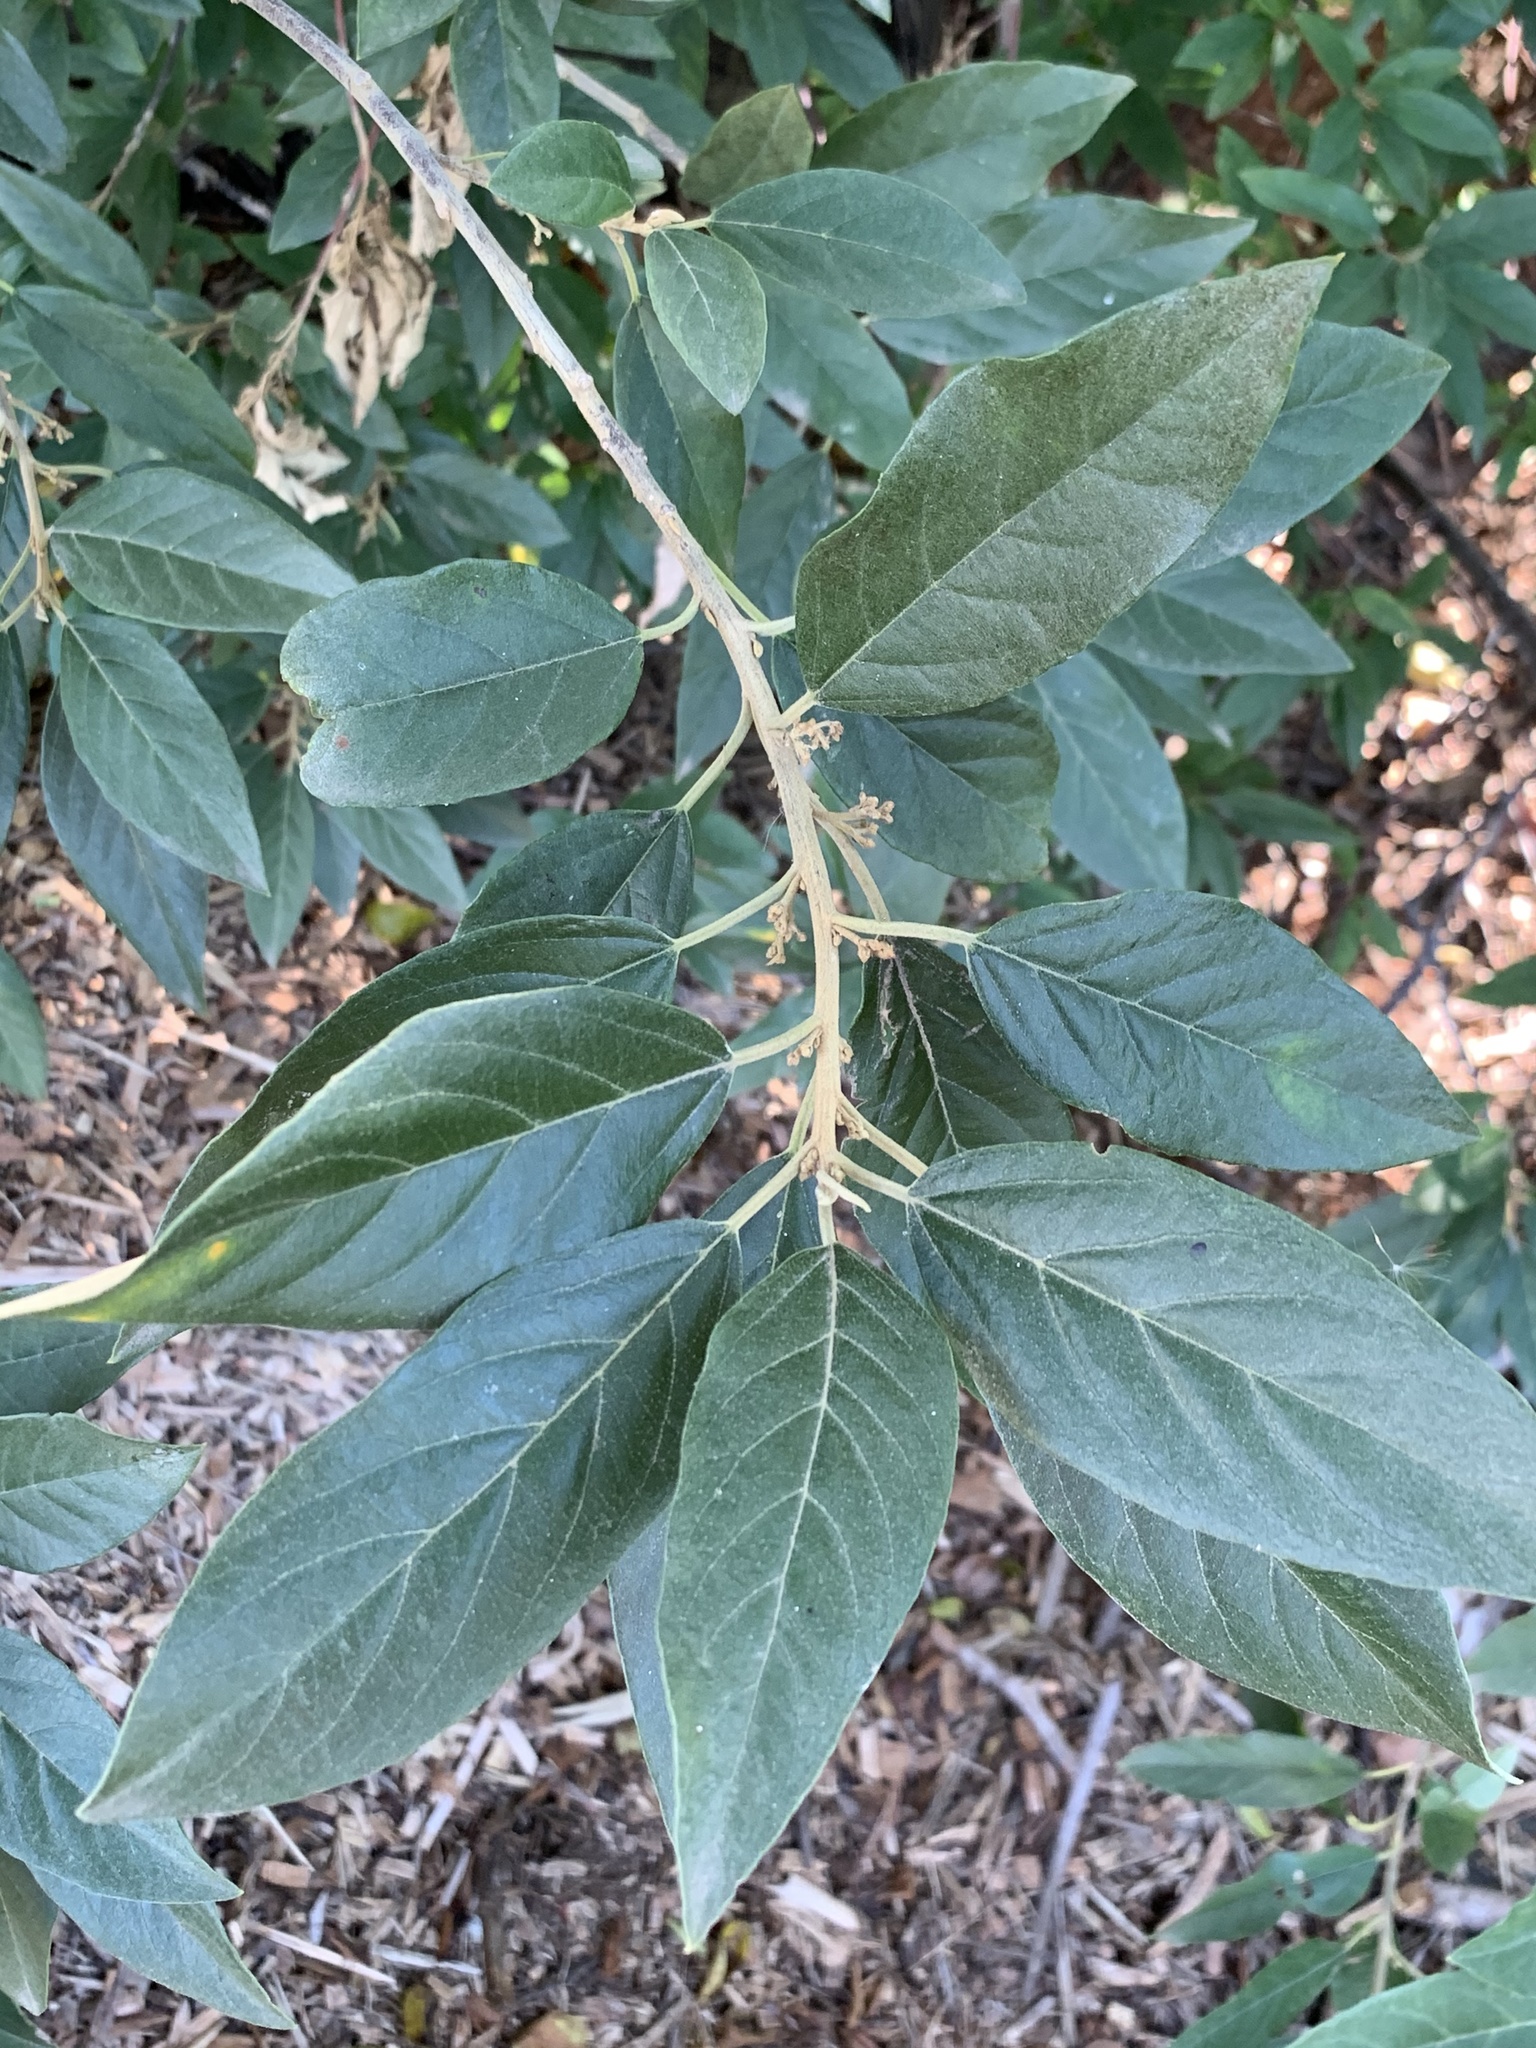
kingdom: Plantae
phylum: Tracheophyta
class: Magnoliopsida
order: Malpighiales
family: Achariaceae
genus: Kiggelaria
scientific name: Kiggelaria africana
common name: Wild peach
